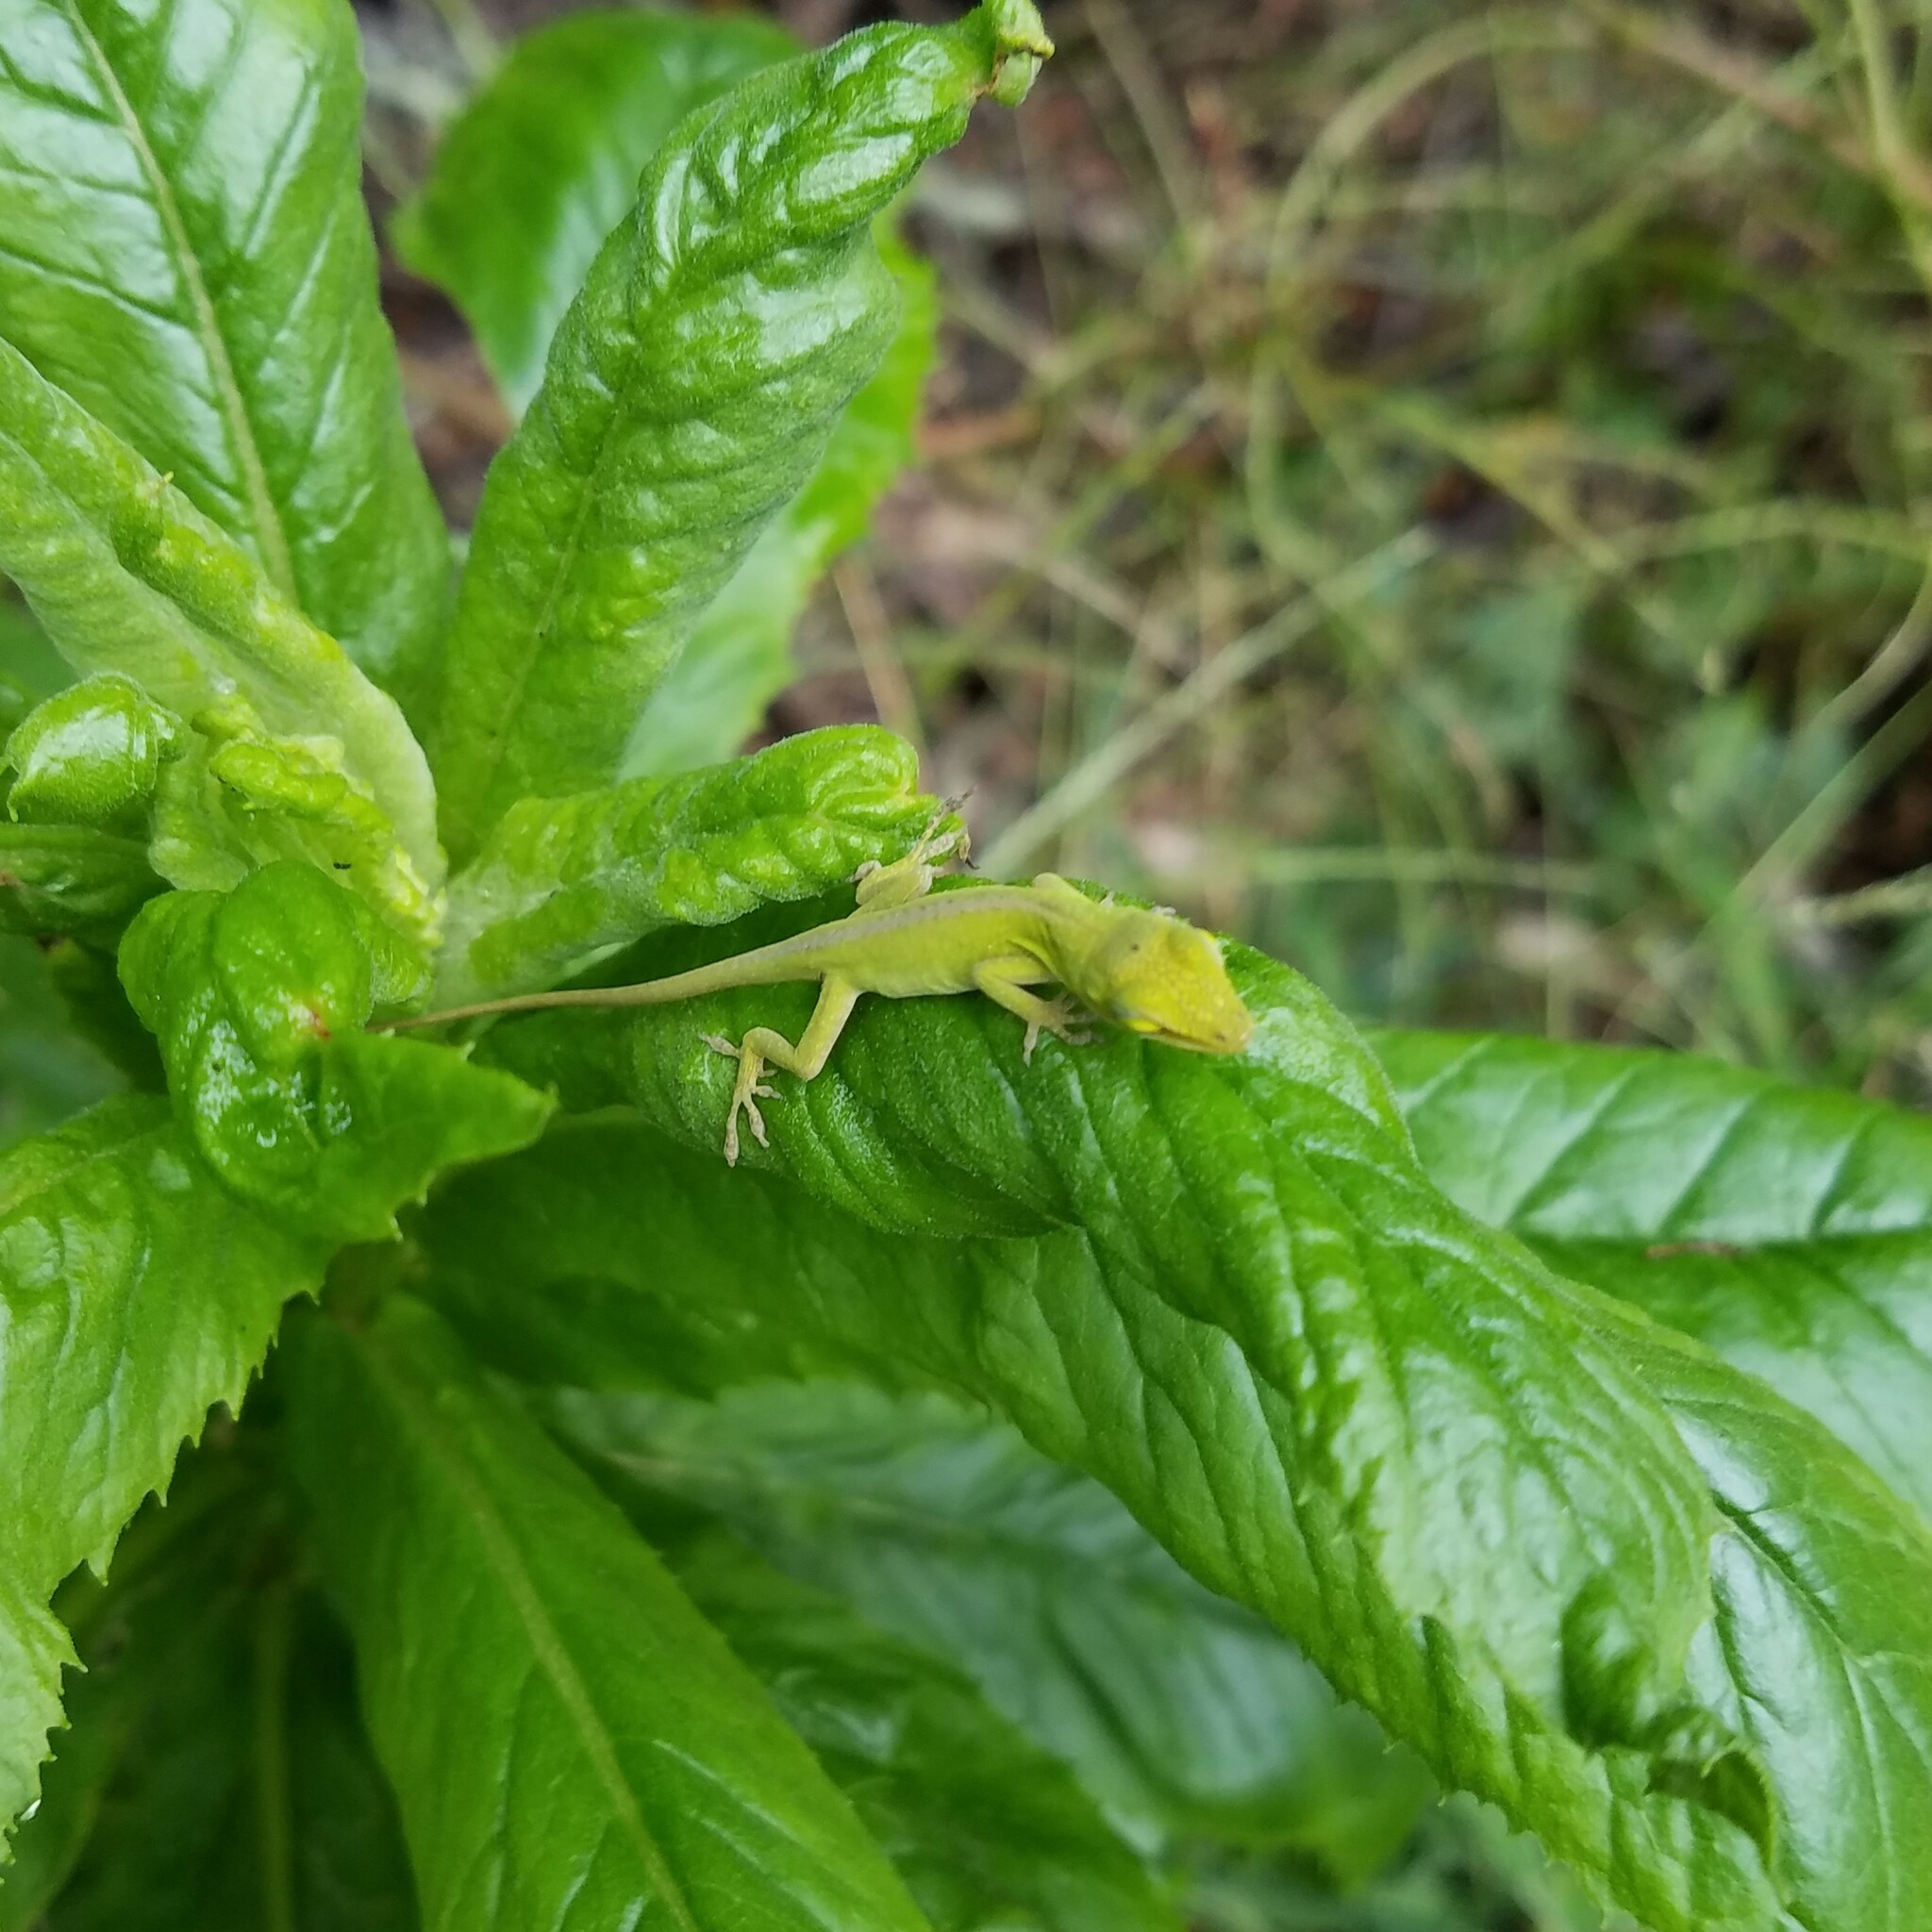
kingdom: Animalia
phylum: Chordata
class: Squamata
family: Dactyloidae
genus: Anolis
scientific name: Anolis carolinensis
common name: Green anole
